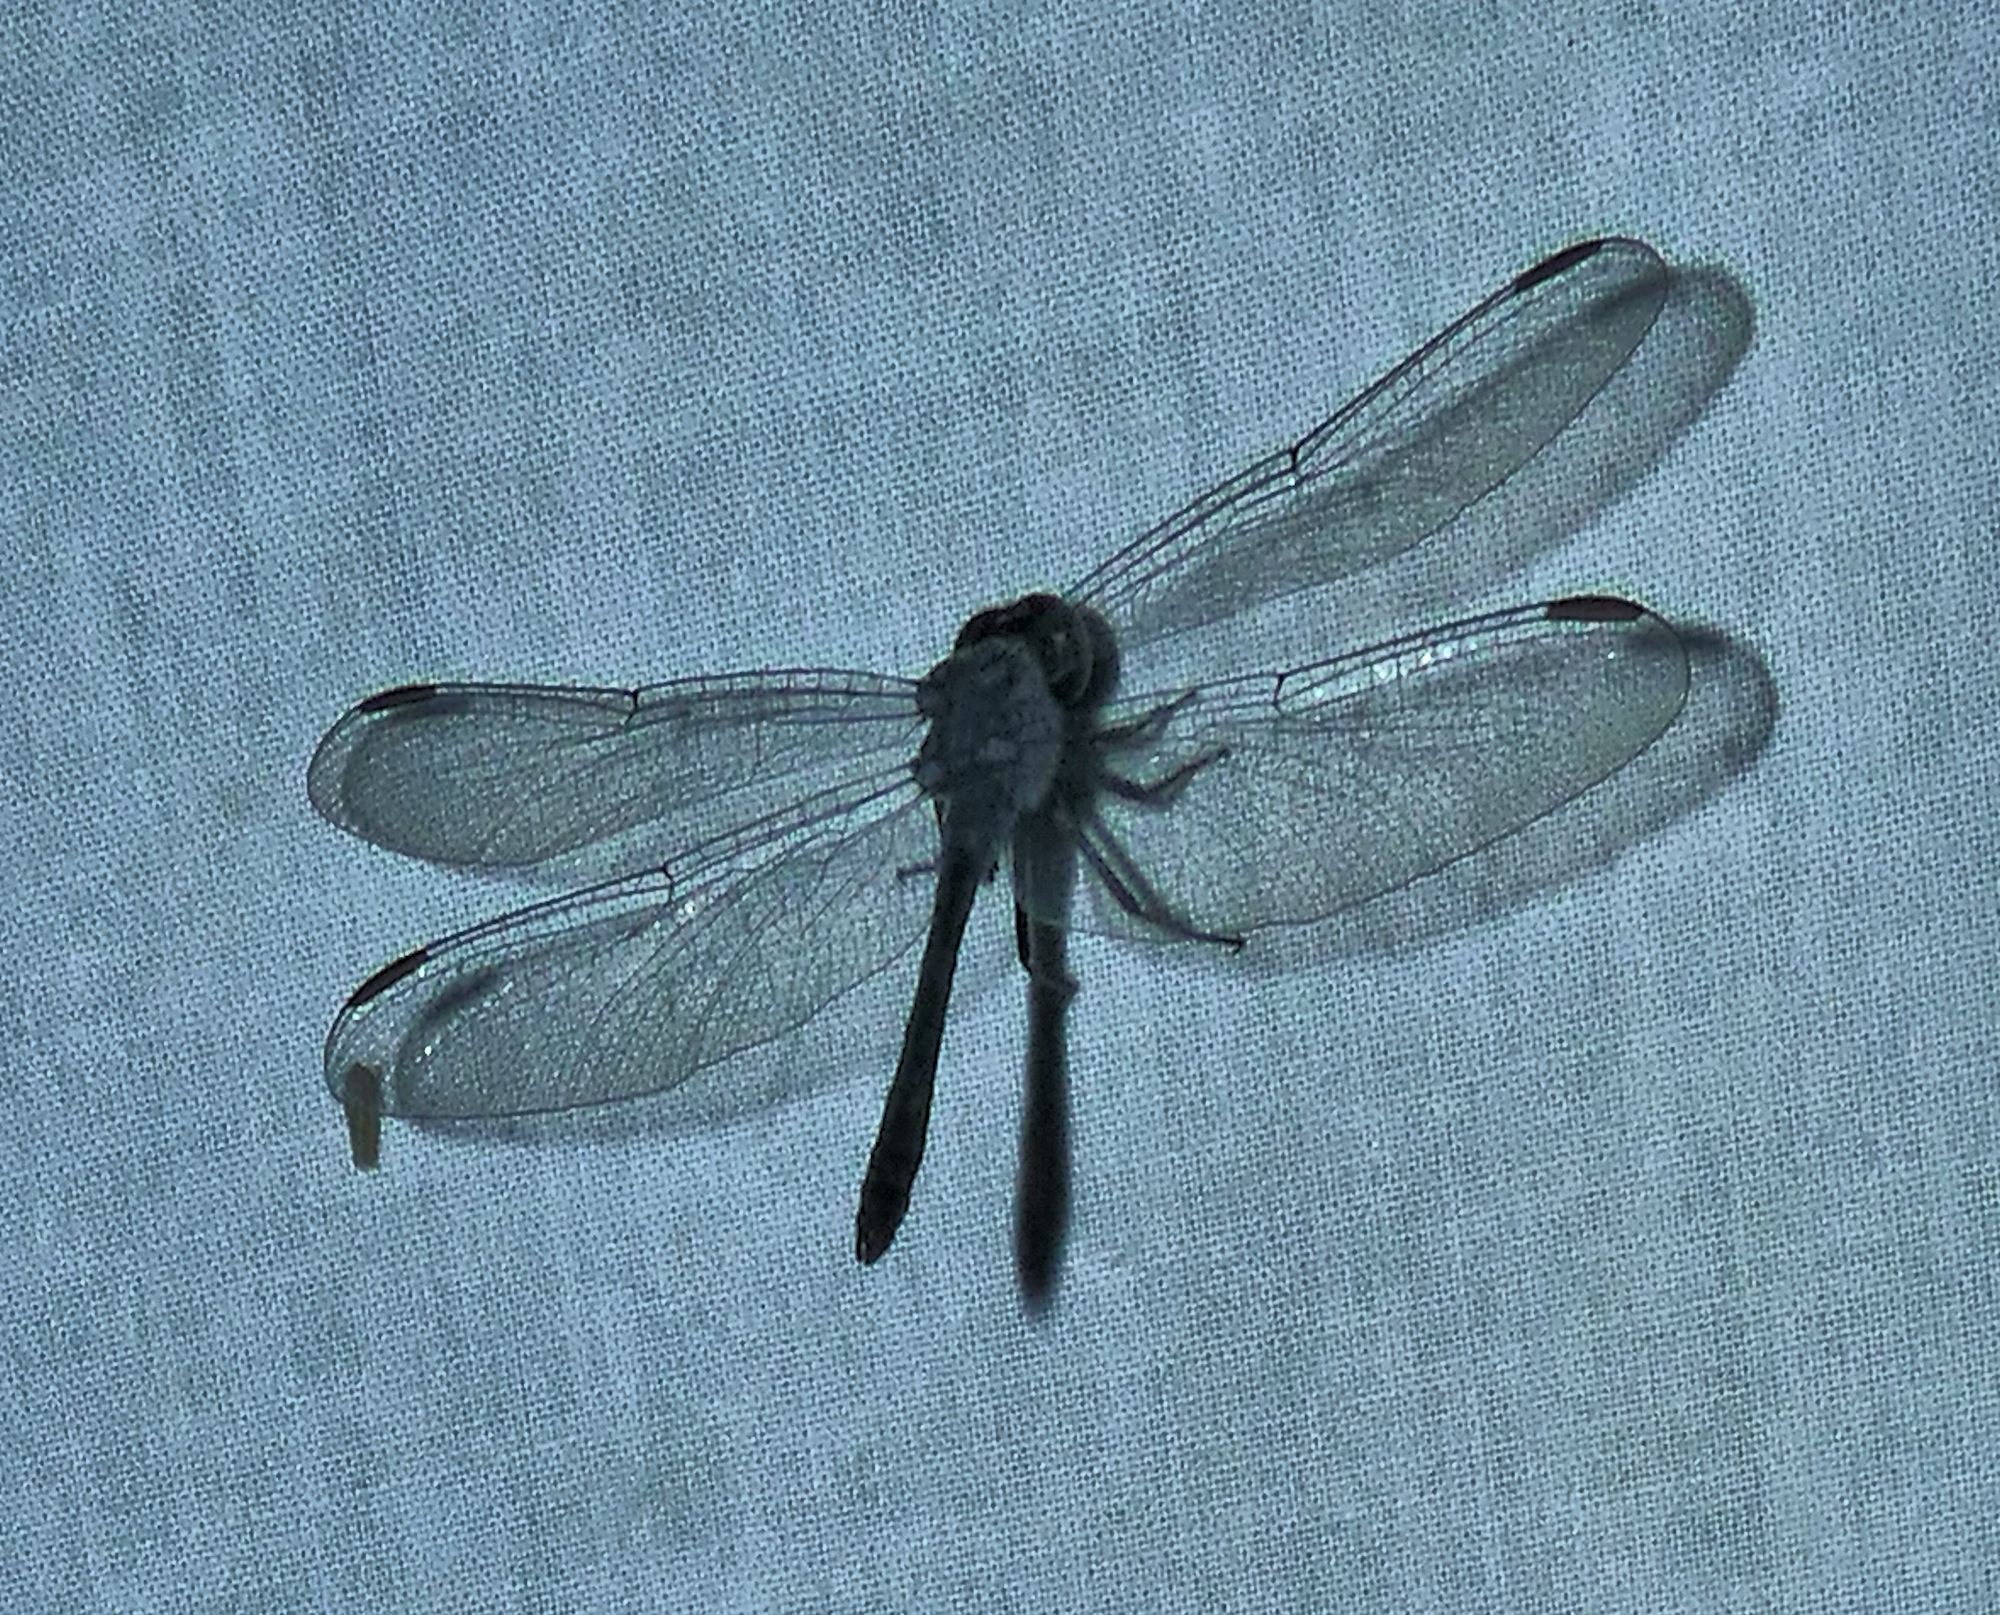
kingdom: Animalia
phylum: Arthropoda
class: Insecta
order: Odonata
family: Libellulidae
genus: Erythrodiplax
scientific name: Erythrodiplax berenice
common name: Seaside dragonlet
